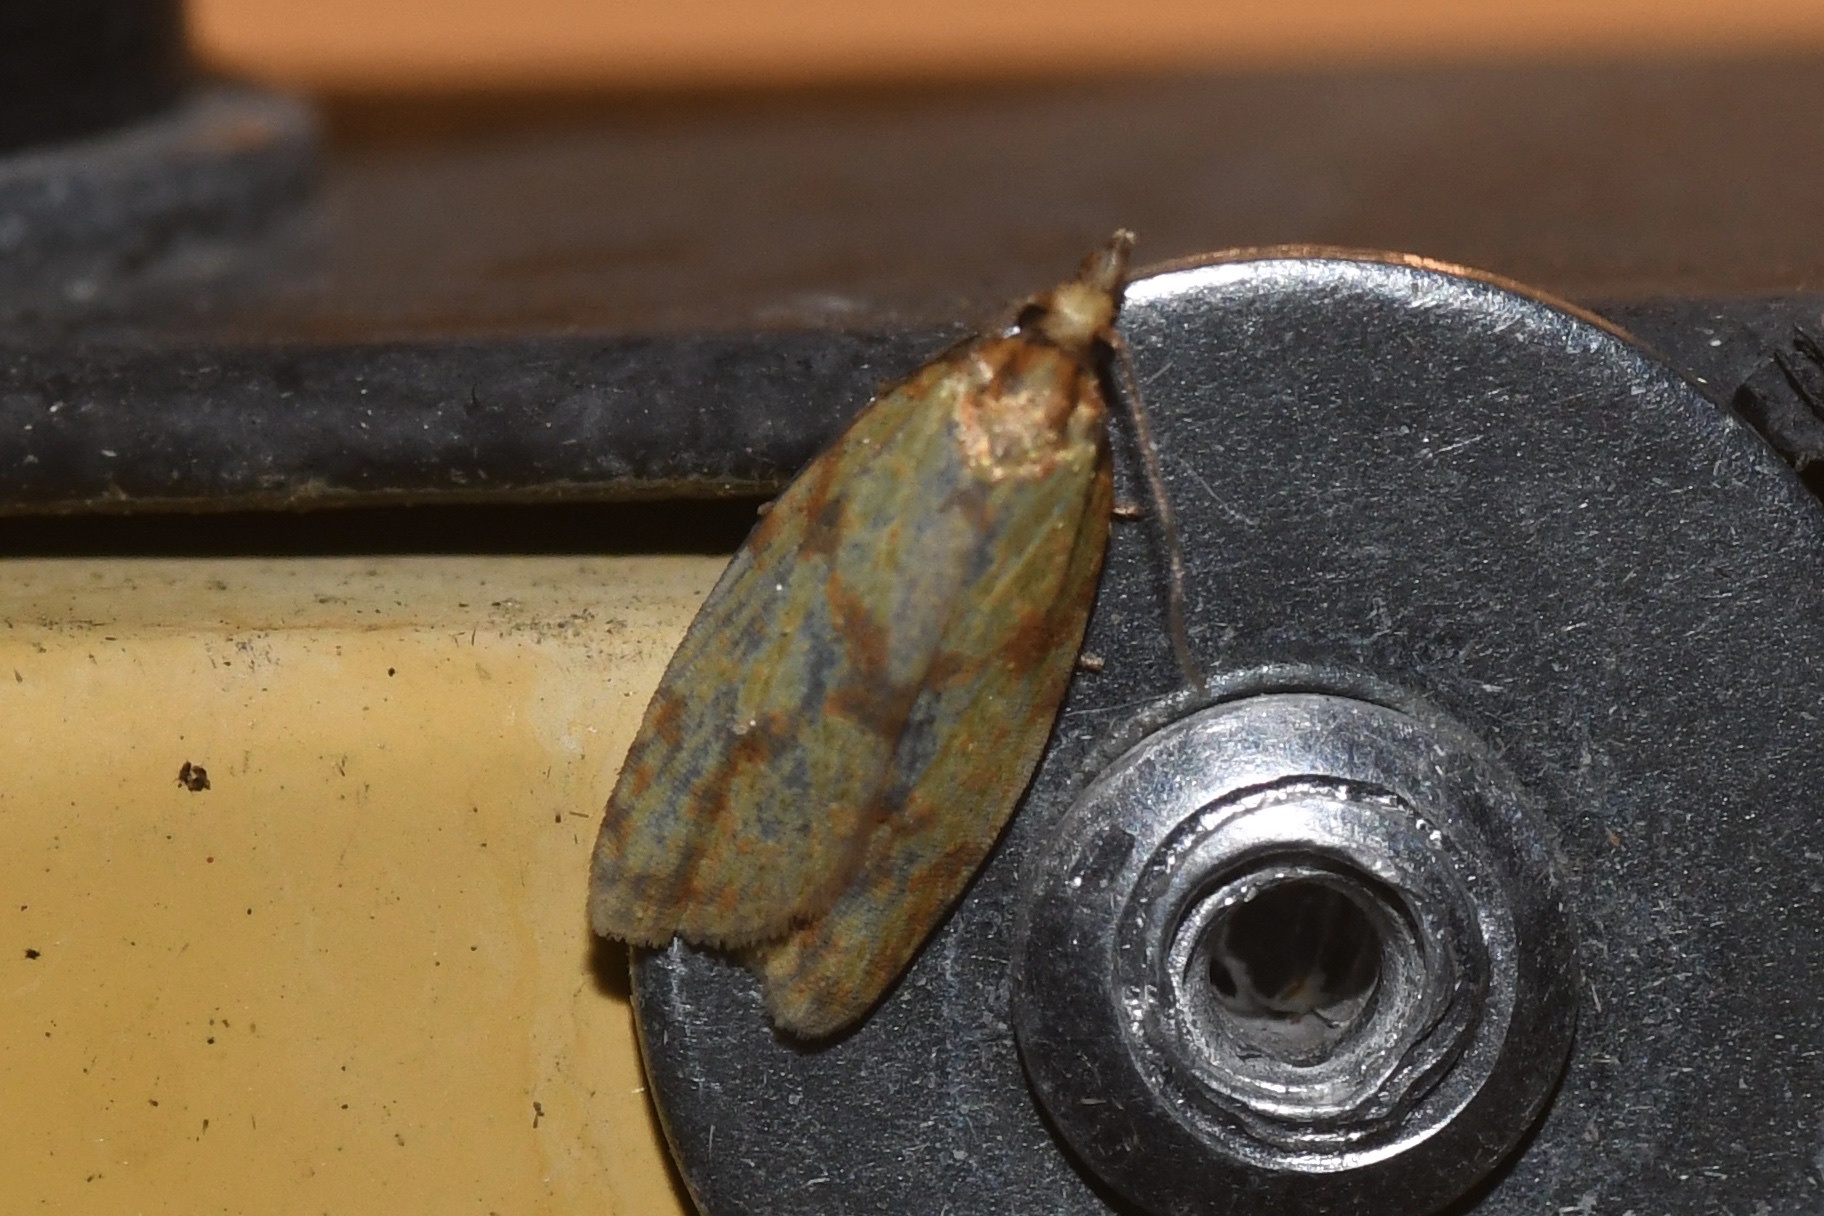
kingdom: Animalia
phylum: Arthropoda
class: Insecta
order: Lepidoptera
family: Tortricidae
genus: Sparganothis
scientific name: Sparganothis sulfureana
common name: Sparganothis fruitworm moth
